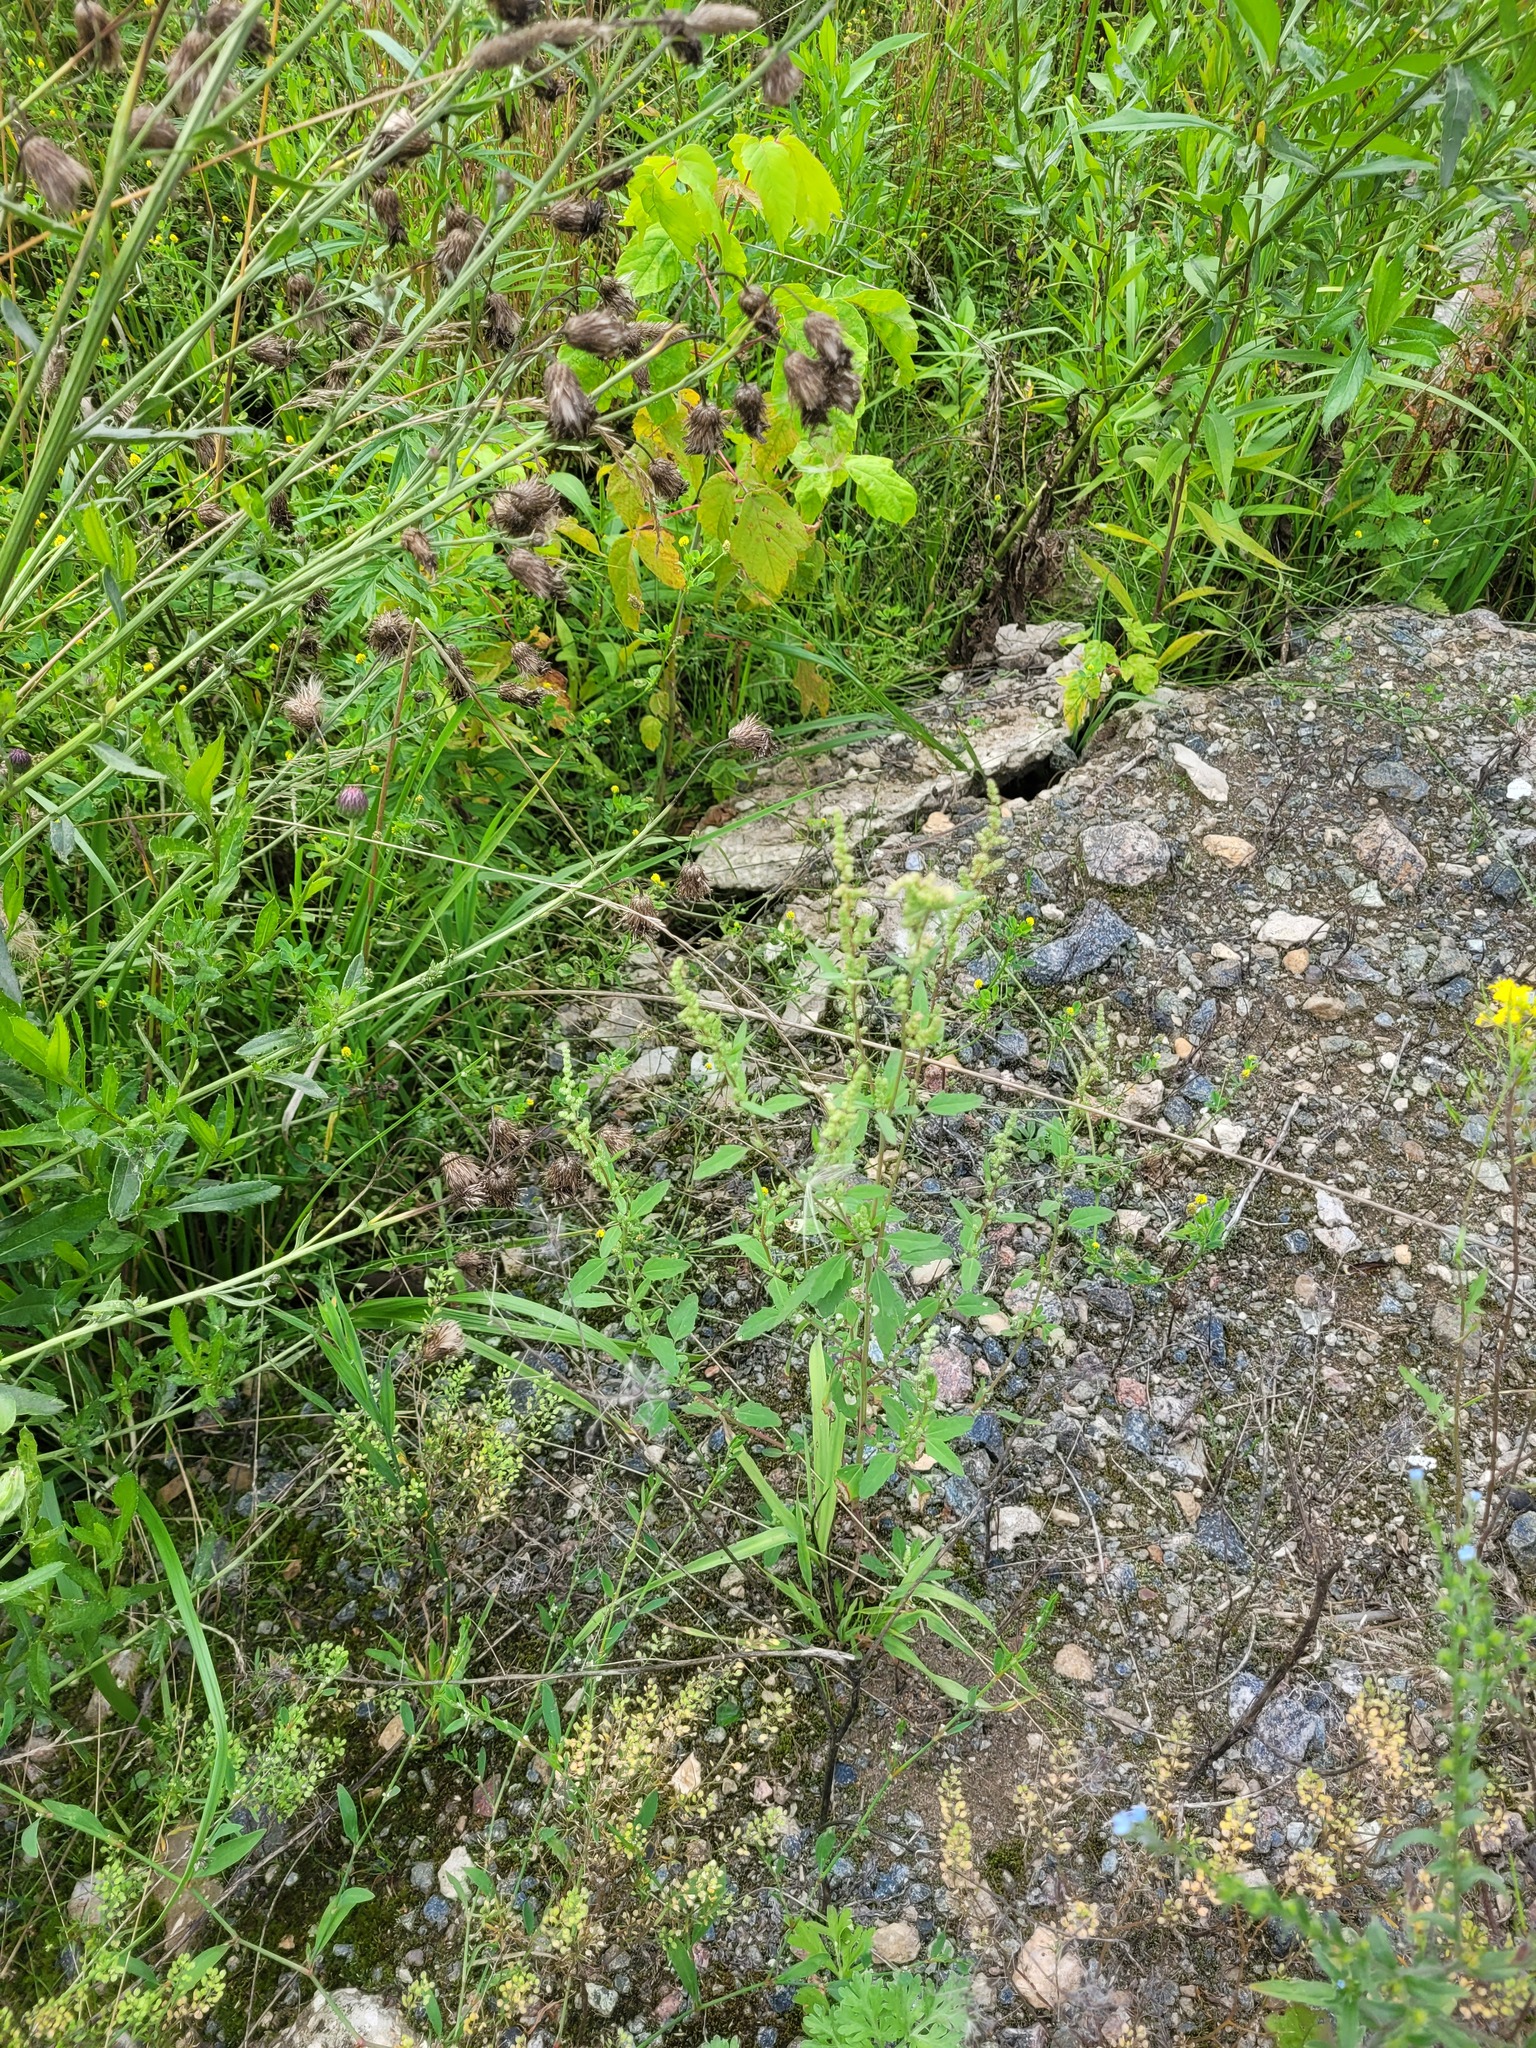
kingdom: Plantae
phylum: Tracheophyta
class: Magnoliopsida
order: Caryophyllales
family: Amaranthaceae
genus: Chenopodium
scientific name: Chenopodium betaceum
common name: Striped goosefoot
